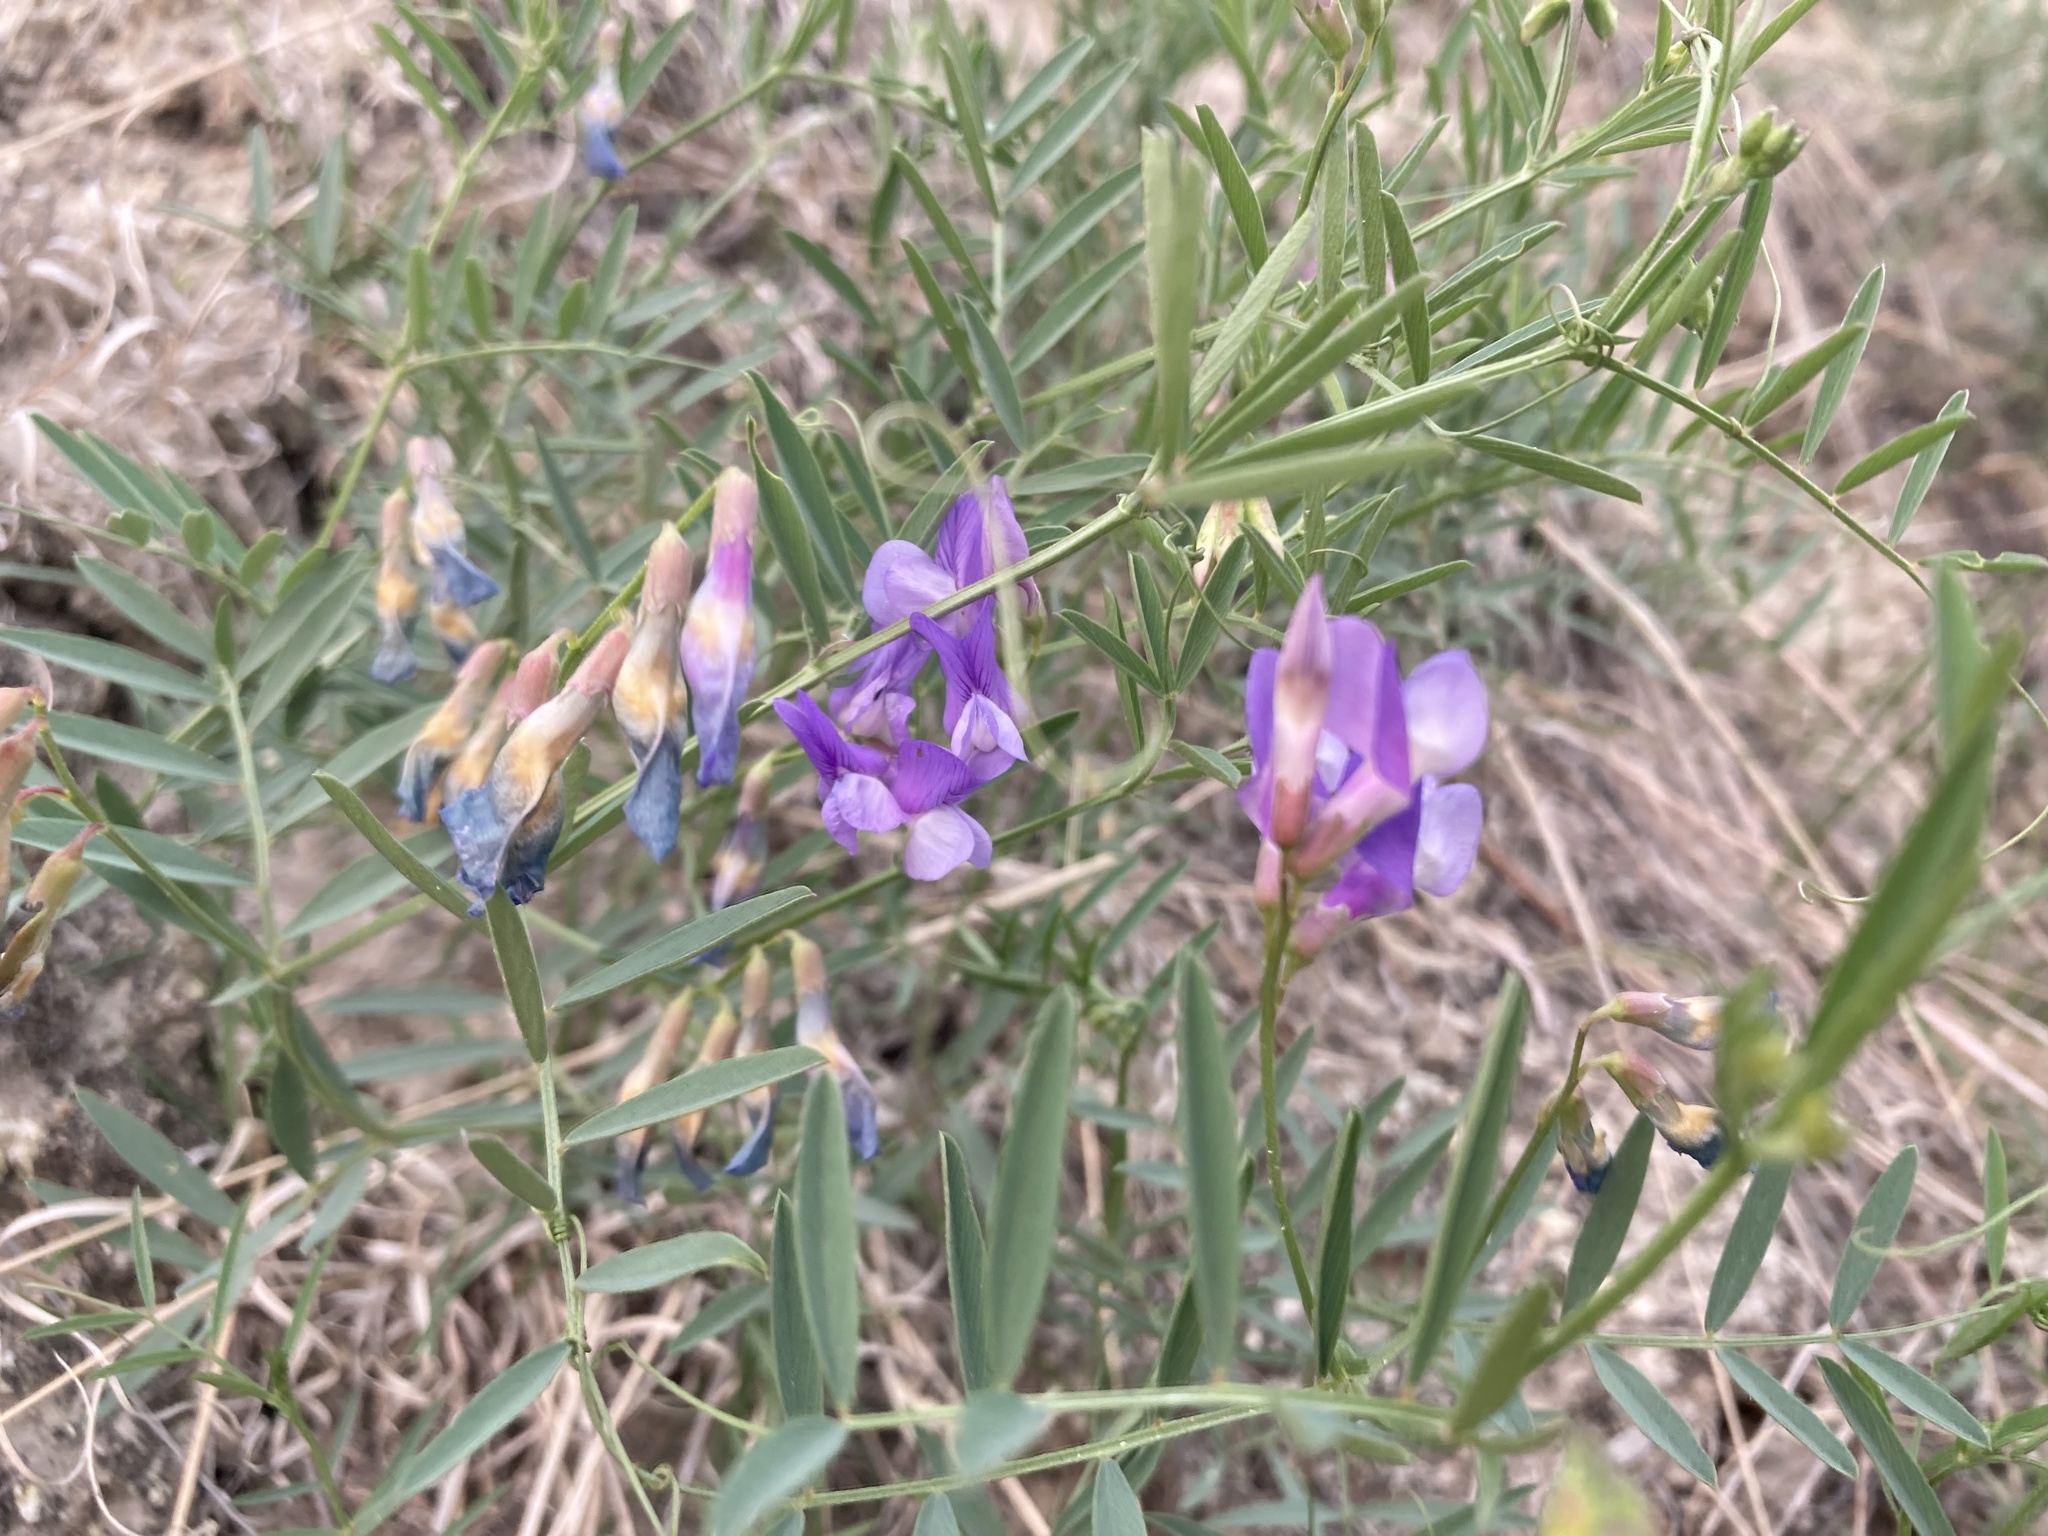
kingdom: Plantae
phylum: Tracheophyta
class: Magnoliopsida
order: Fabales
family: Fabaceae
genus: Vicia
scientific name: Vicia americana
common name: American vetch
